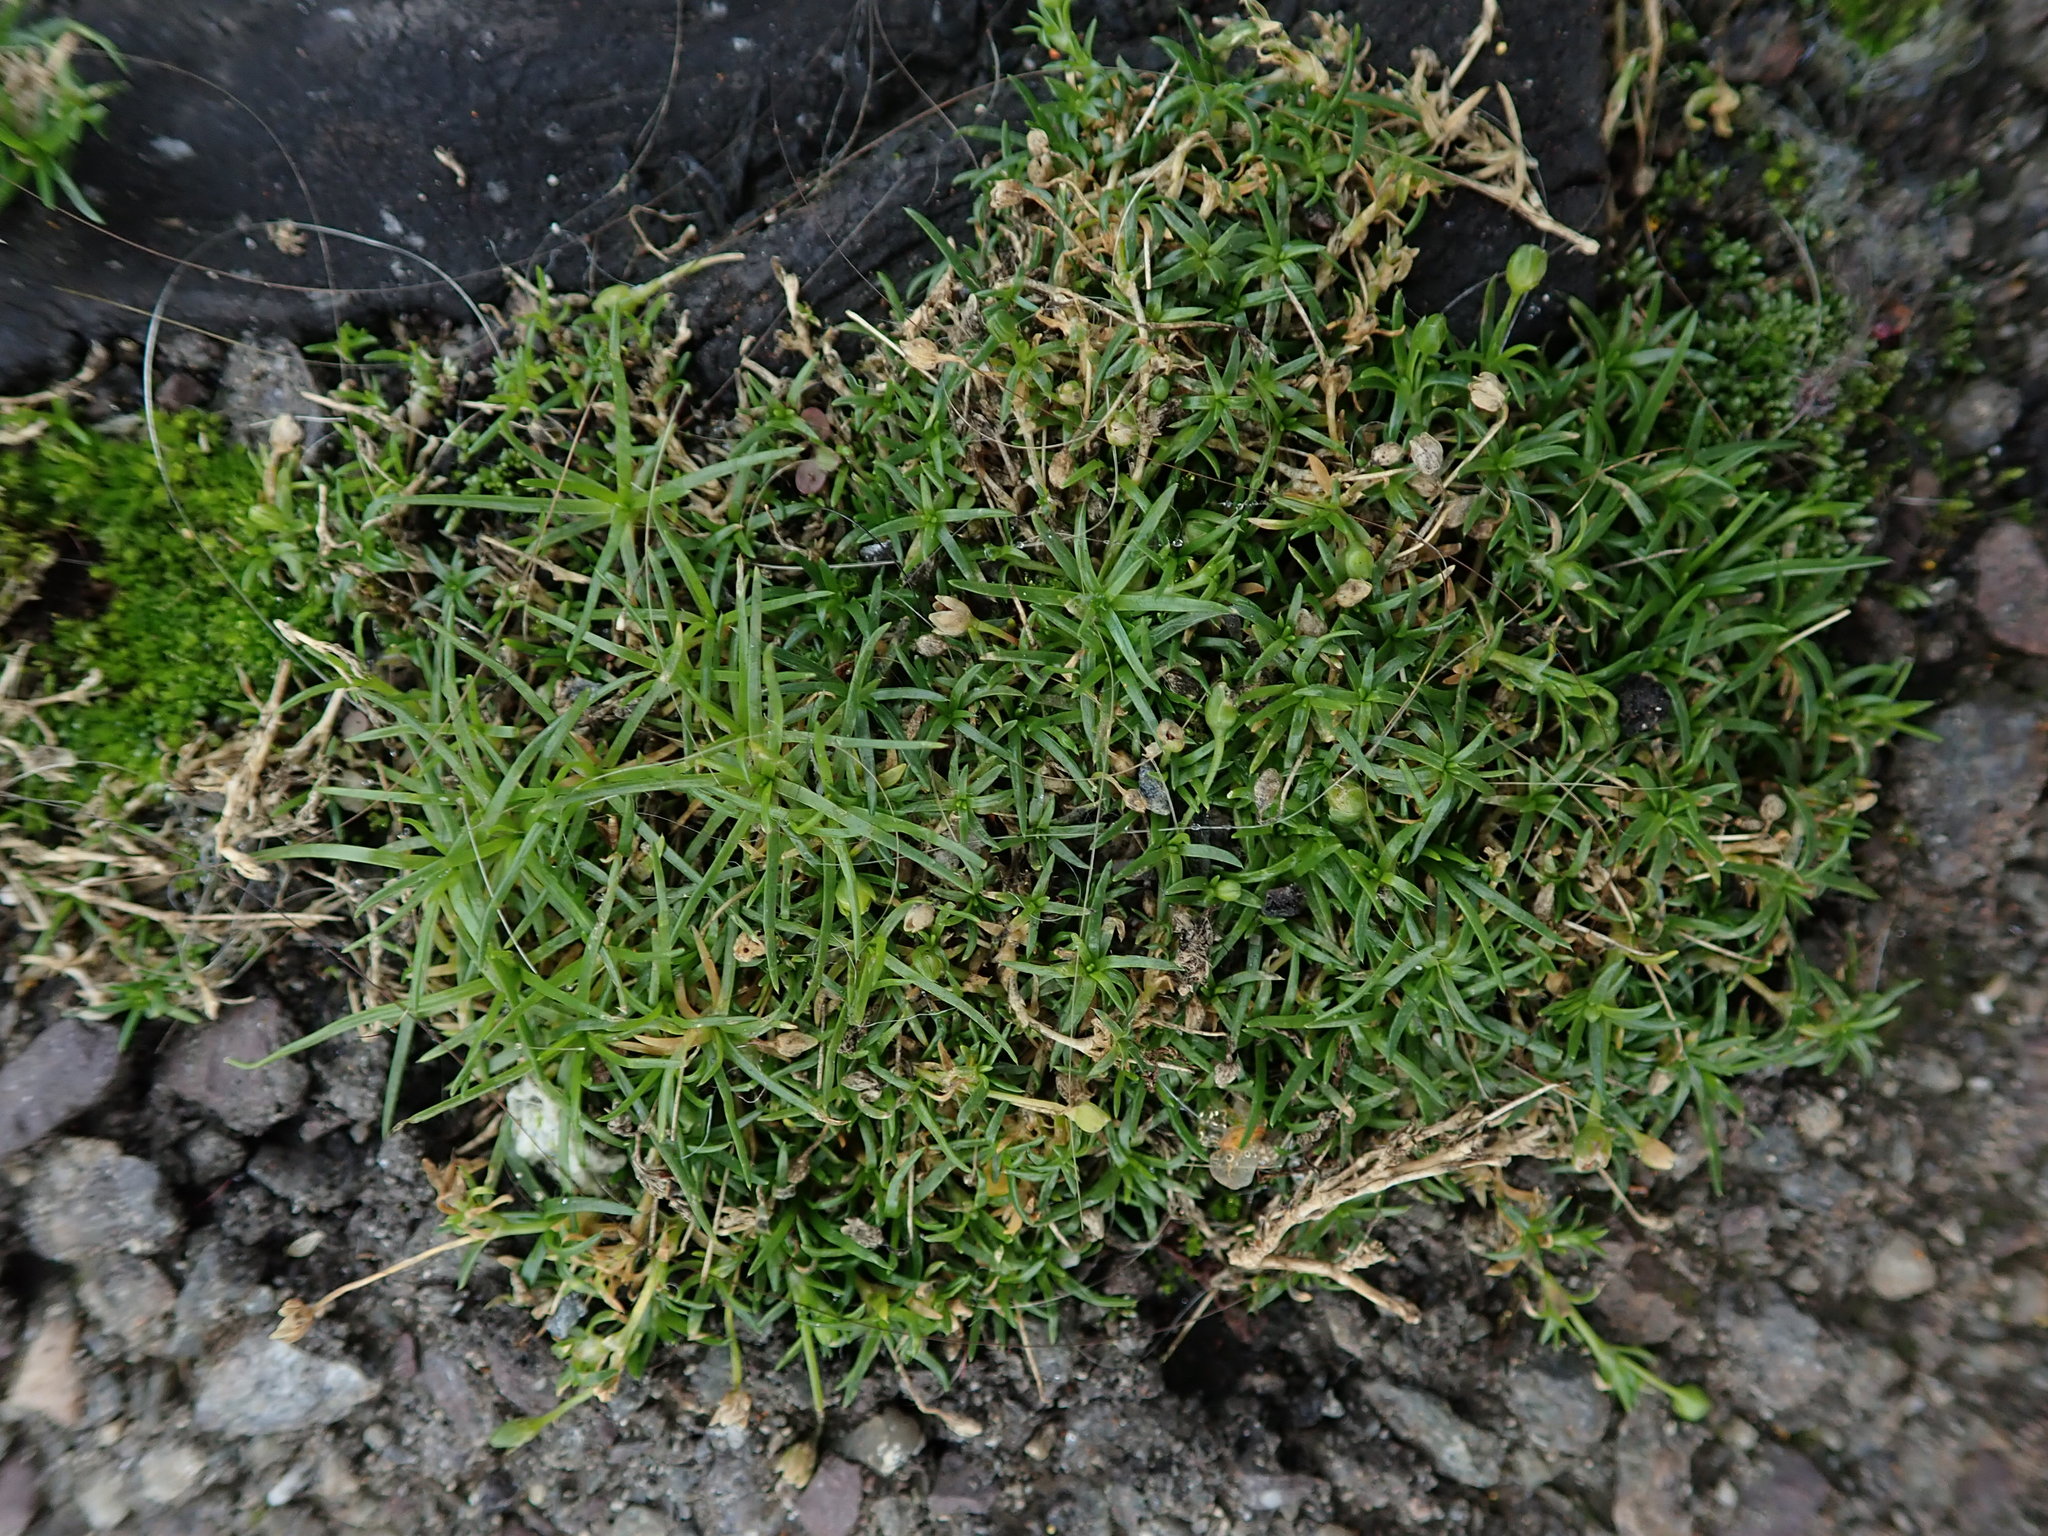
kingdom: Plantae
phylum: Tracheophyta
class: Magnoliopsida
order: Caryophyllales
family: Caryophyllaceae
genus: Sagina
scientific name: Sagina procumbens
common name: Procumbent pearlwort
